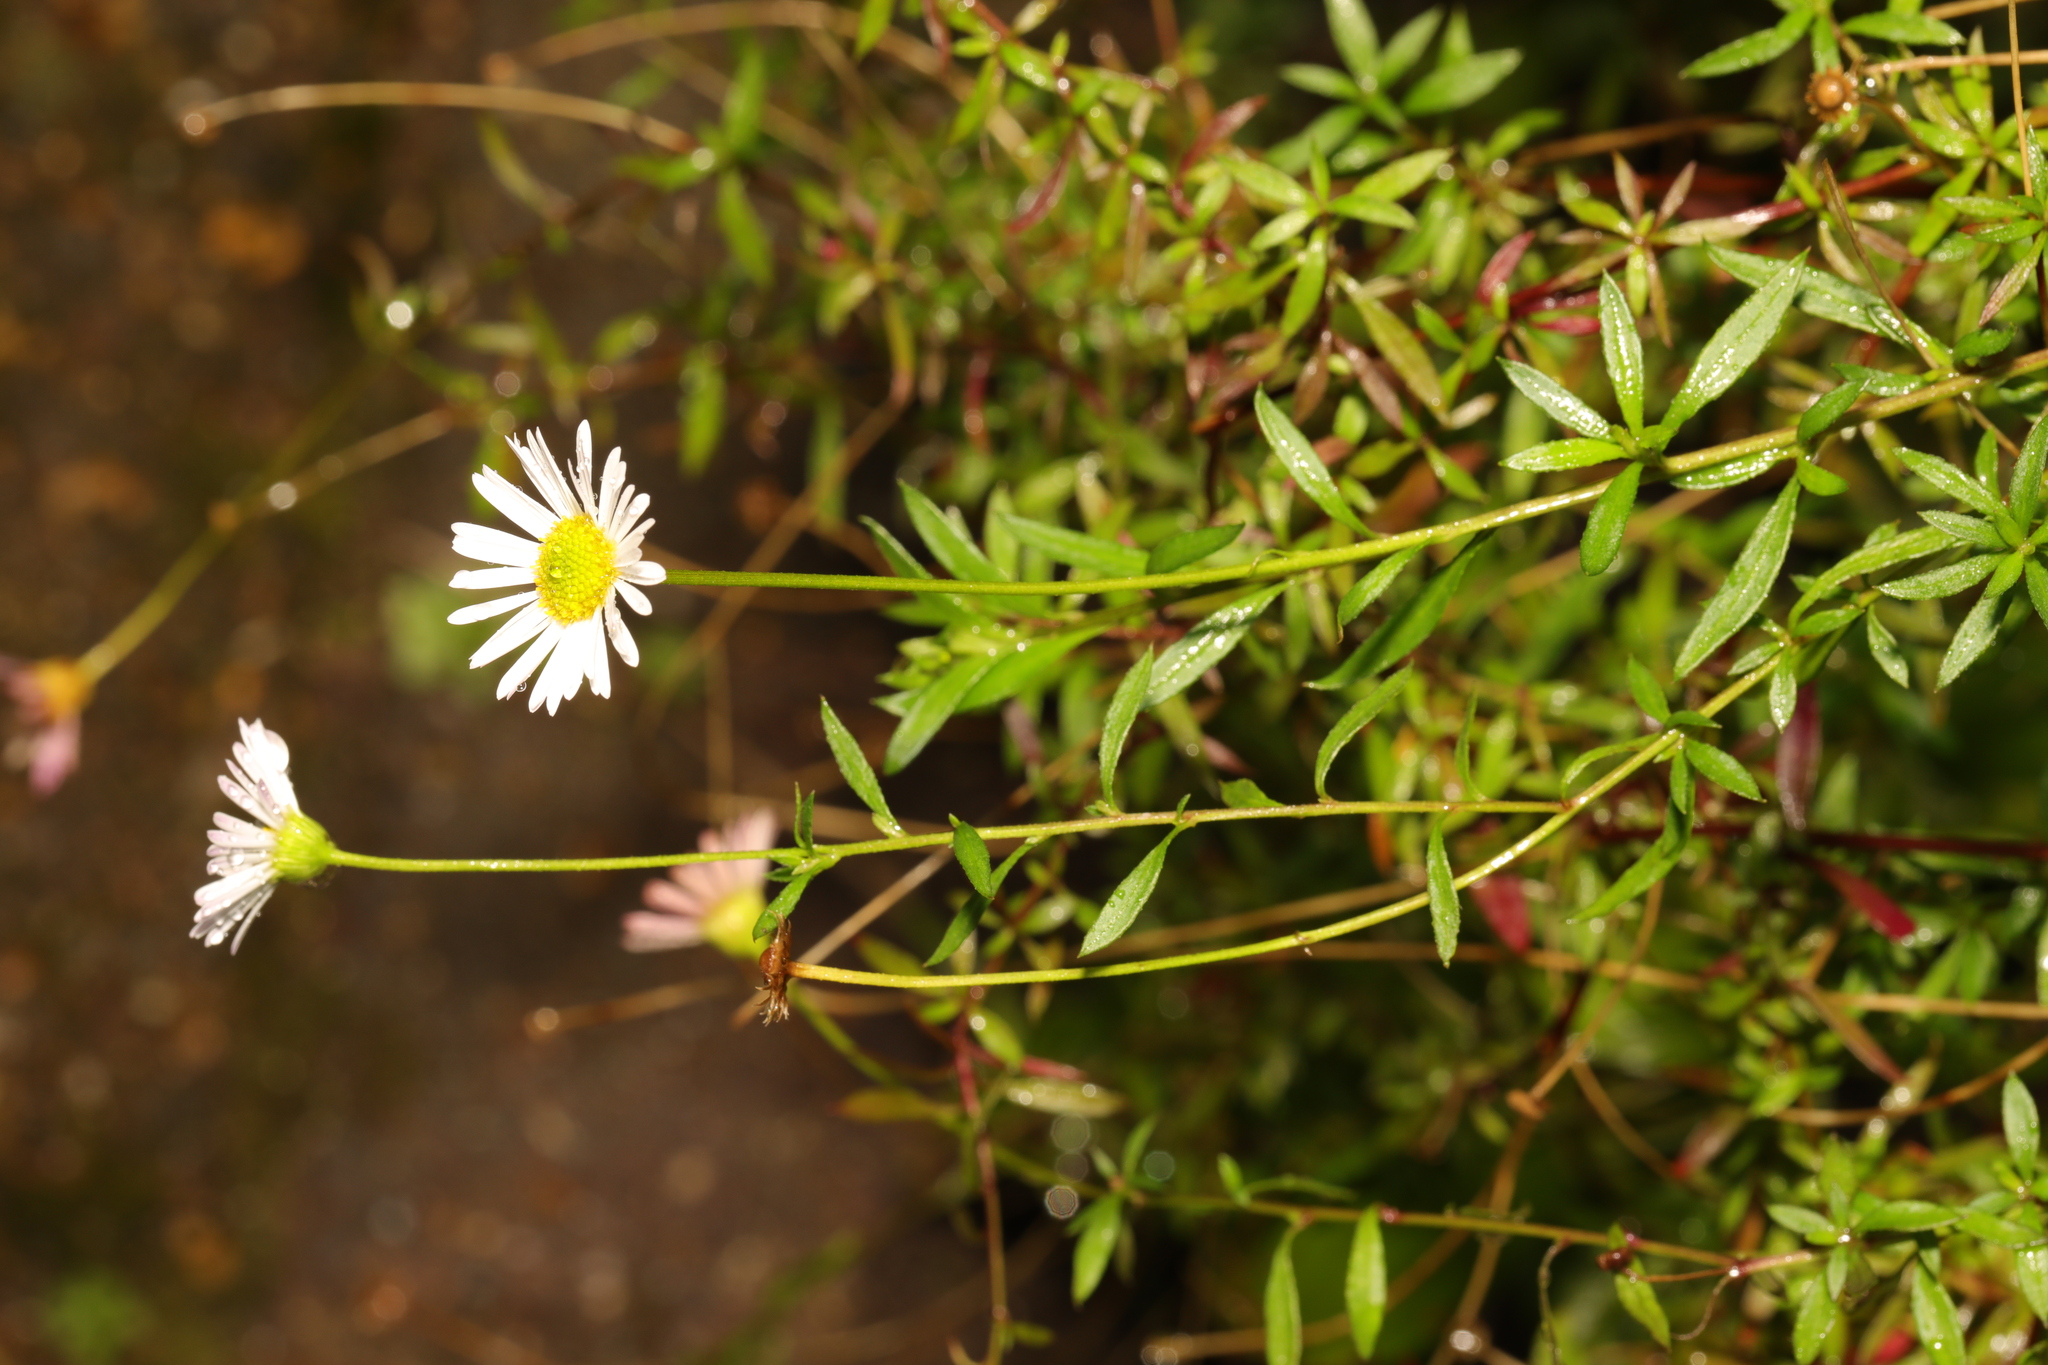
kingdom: Plantae
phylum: Tracheophyta
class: Magnoliopsida
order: Asterales
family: Asteraceae
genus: Erigeron
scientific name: Erigeron karvinskianus
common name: Mexican fleabane
